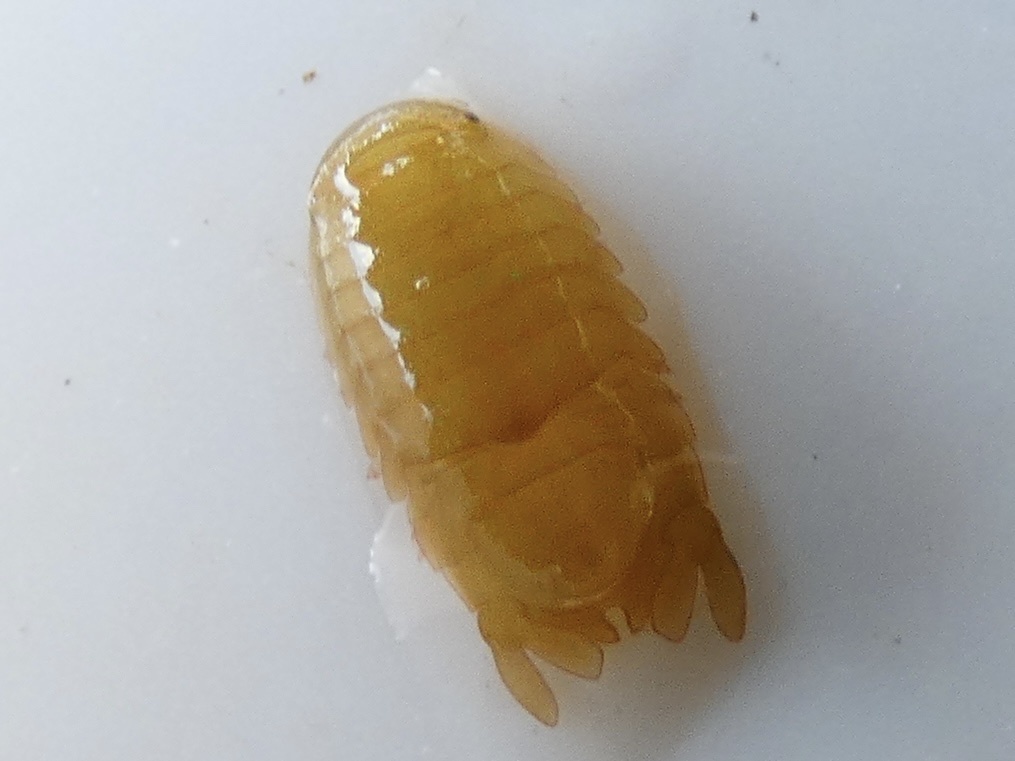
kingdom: Animalia
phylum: Arthropoda
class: Malacostraca
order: Isopoda
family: Sphaeromatidae
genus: Dynamene
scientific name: Dynamene bidentata
